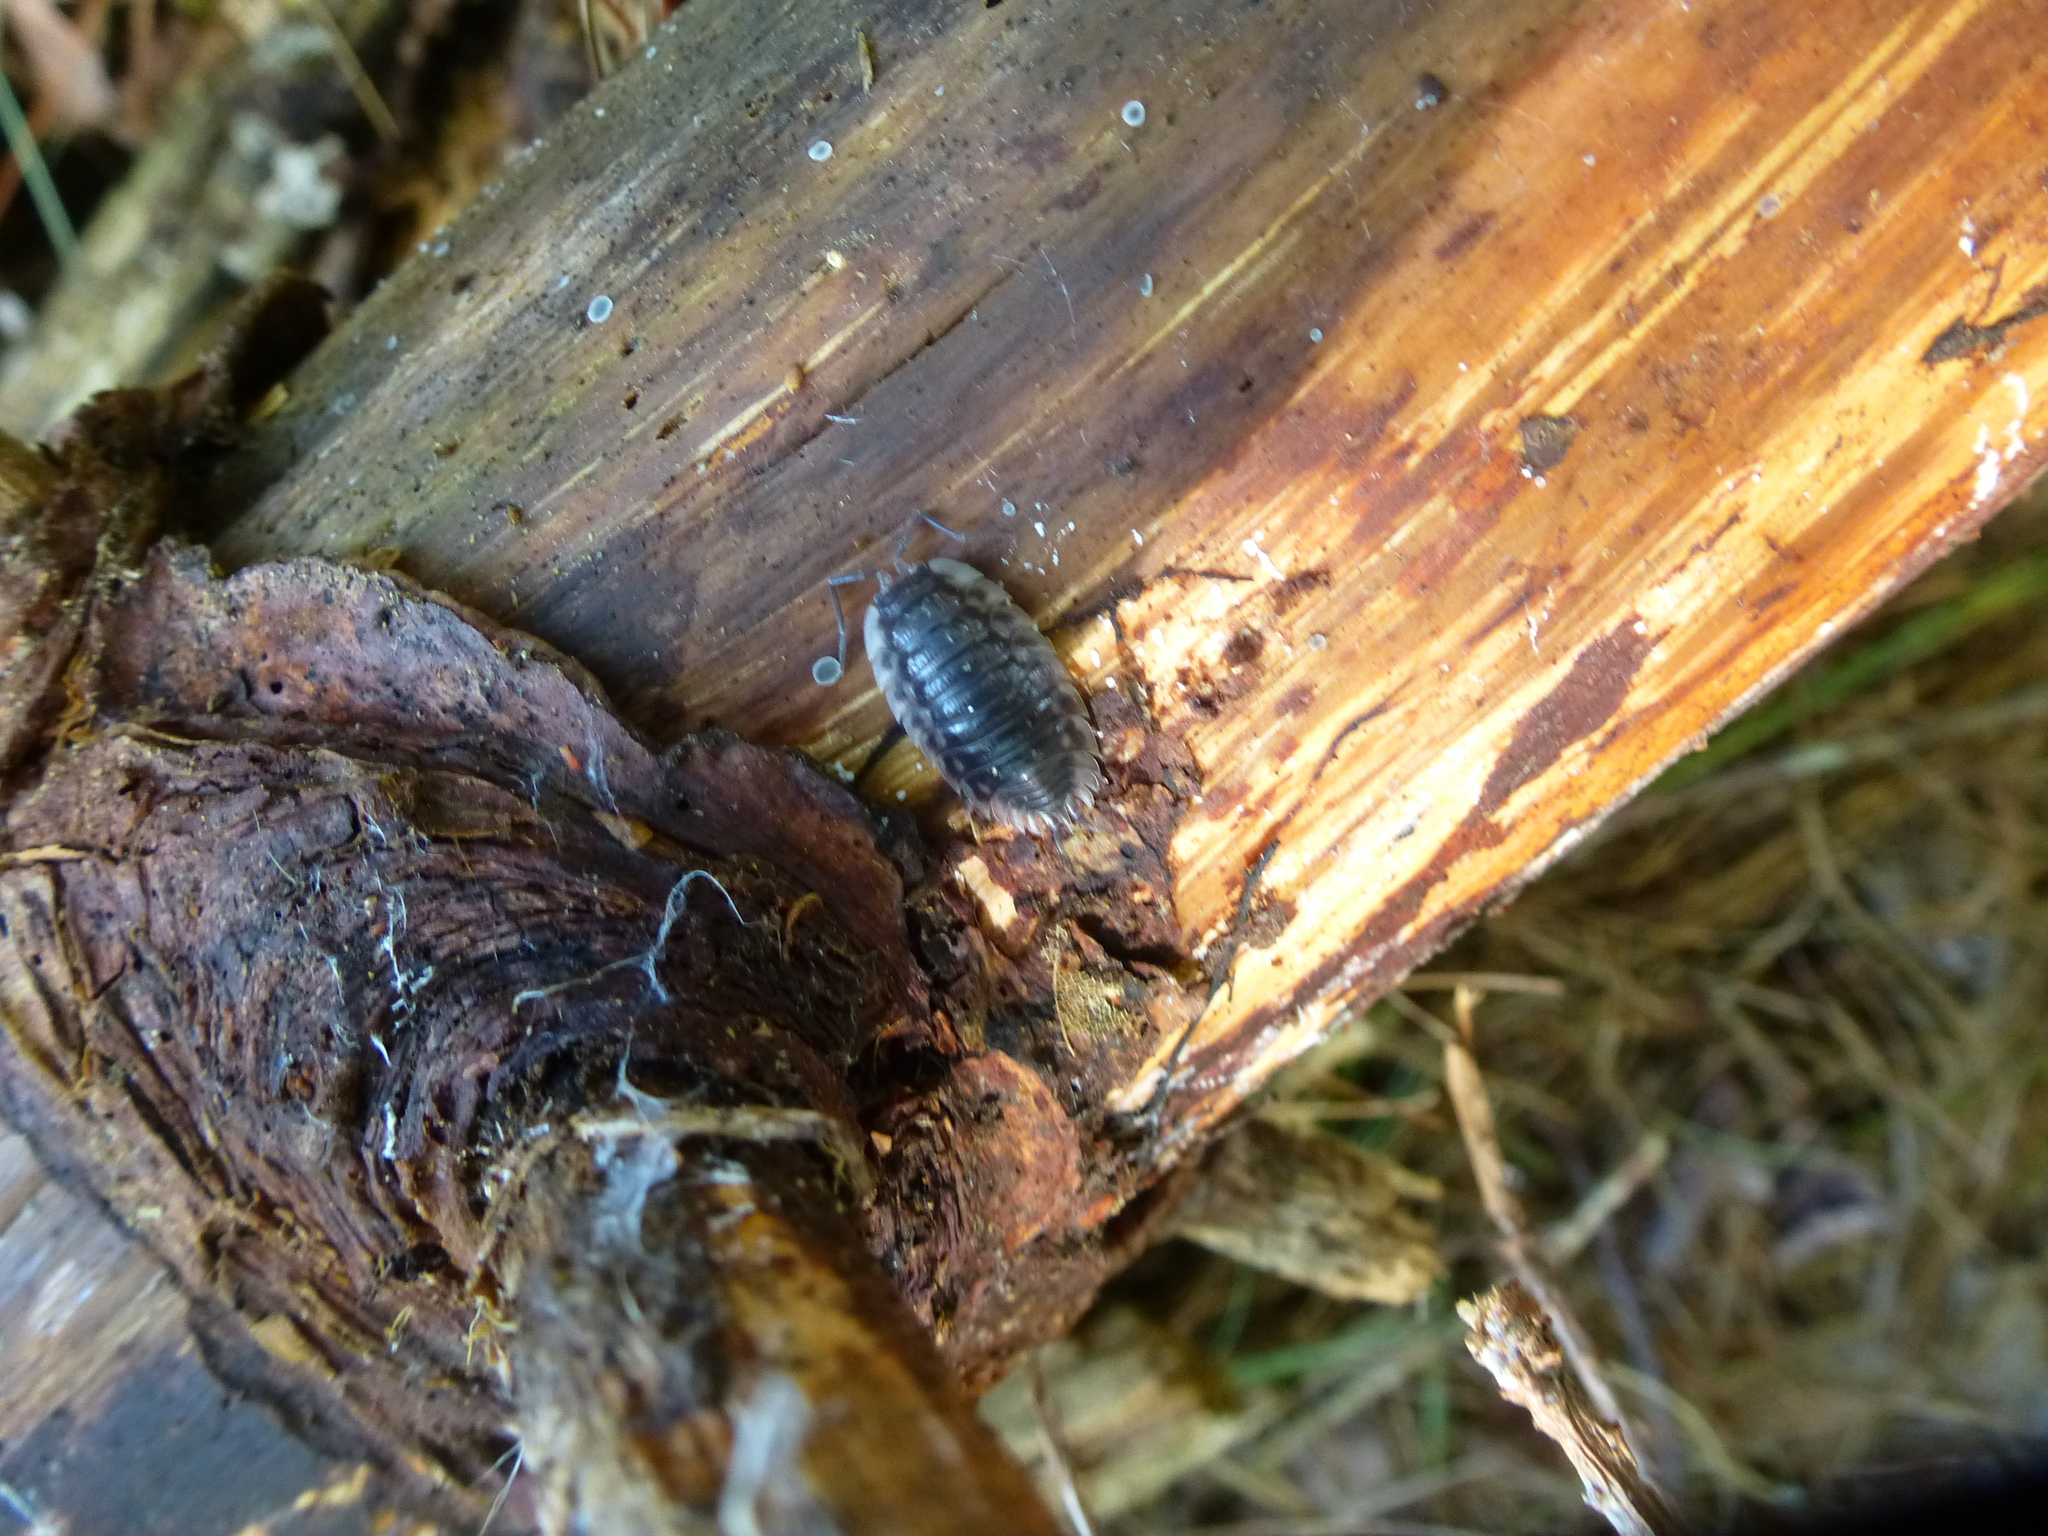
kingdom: Animalia
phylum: Arthropoda
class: Malacostraca
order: Isopoda
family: Oniscidae
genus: Oniscus
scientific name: Oniscus asellus
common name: Common shiny woodlouse
